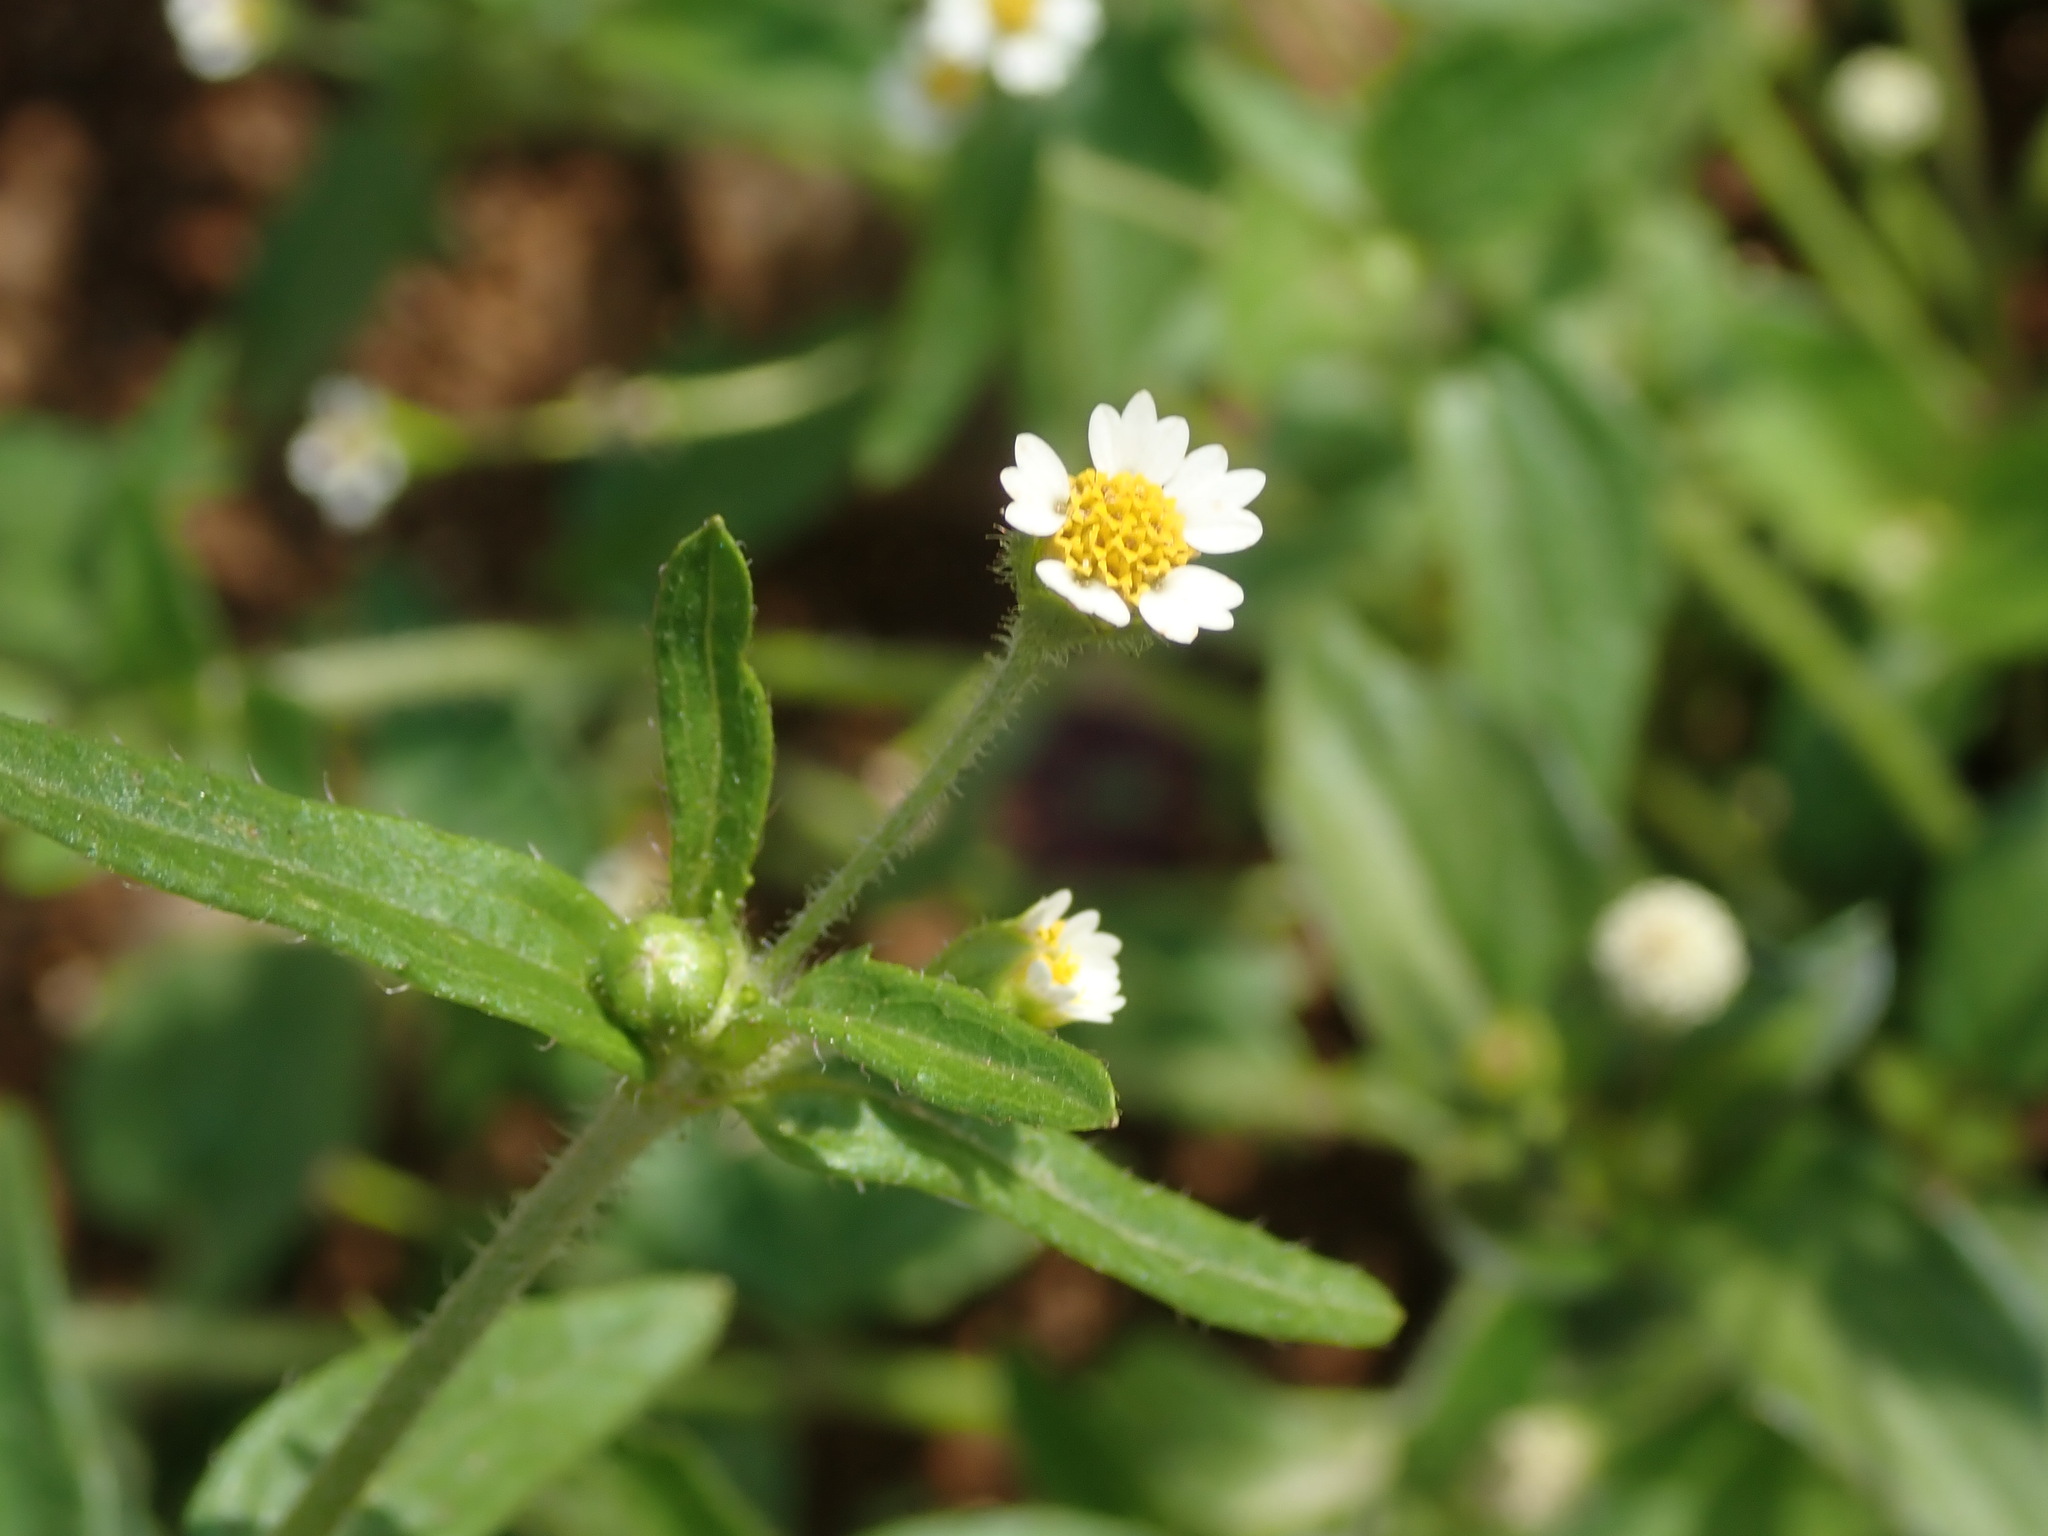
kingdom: Plantae
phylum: Tracheophyta
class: Magnoliopsida
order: Asterales
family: Asteraceae
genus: Galinsoga
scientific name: Galinsoga quadriradiata
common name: Shaggy soldier
